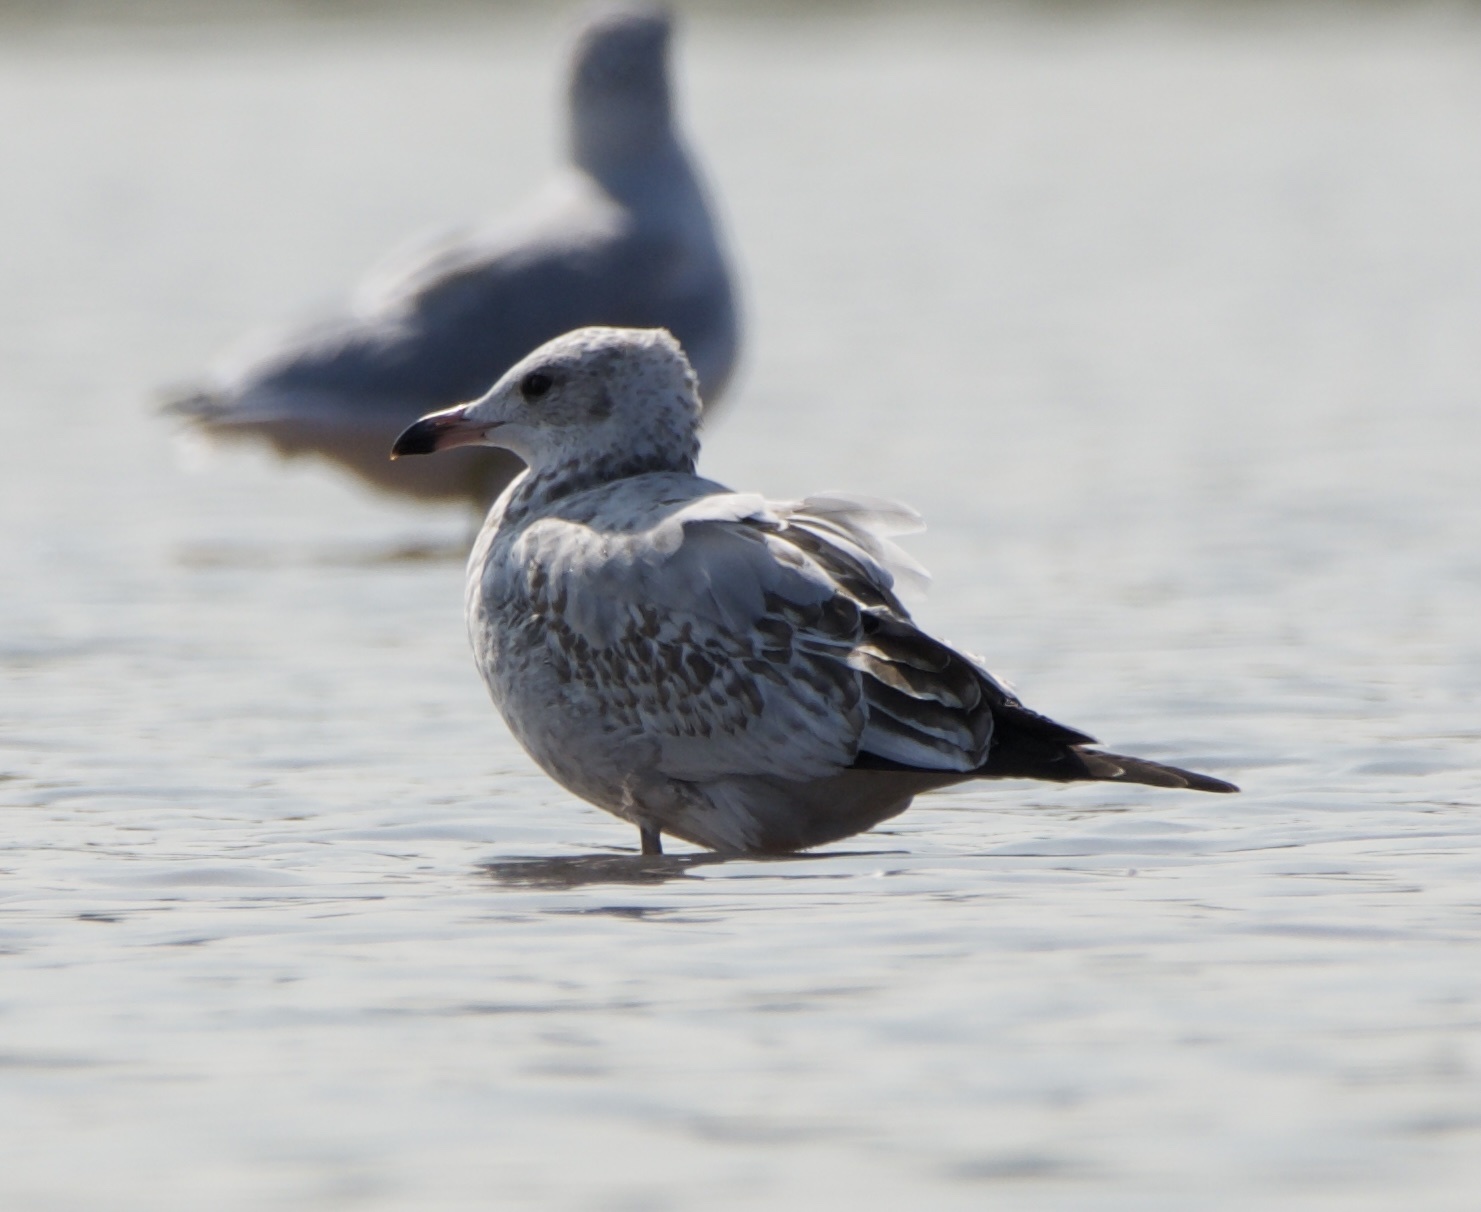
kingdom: Animalia
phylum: Chordata
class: Aves
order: Charadriiformes
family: Laridae
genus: Larus
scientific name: Larus delawarensis
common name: Ring-billed gull
